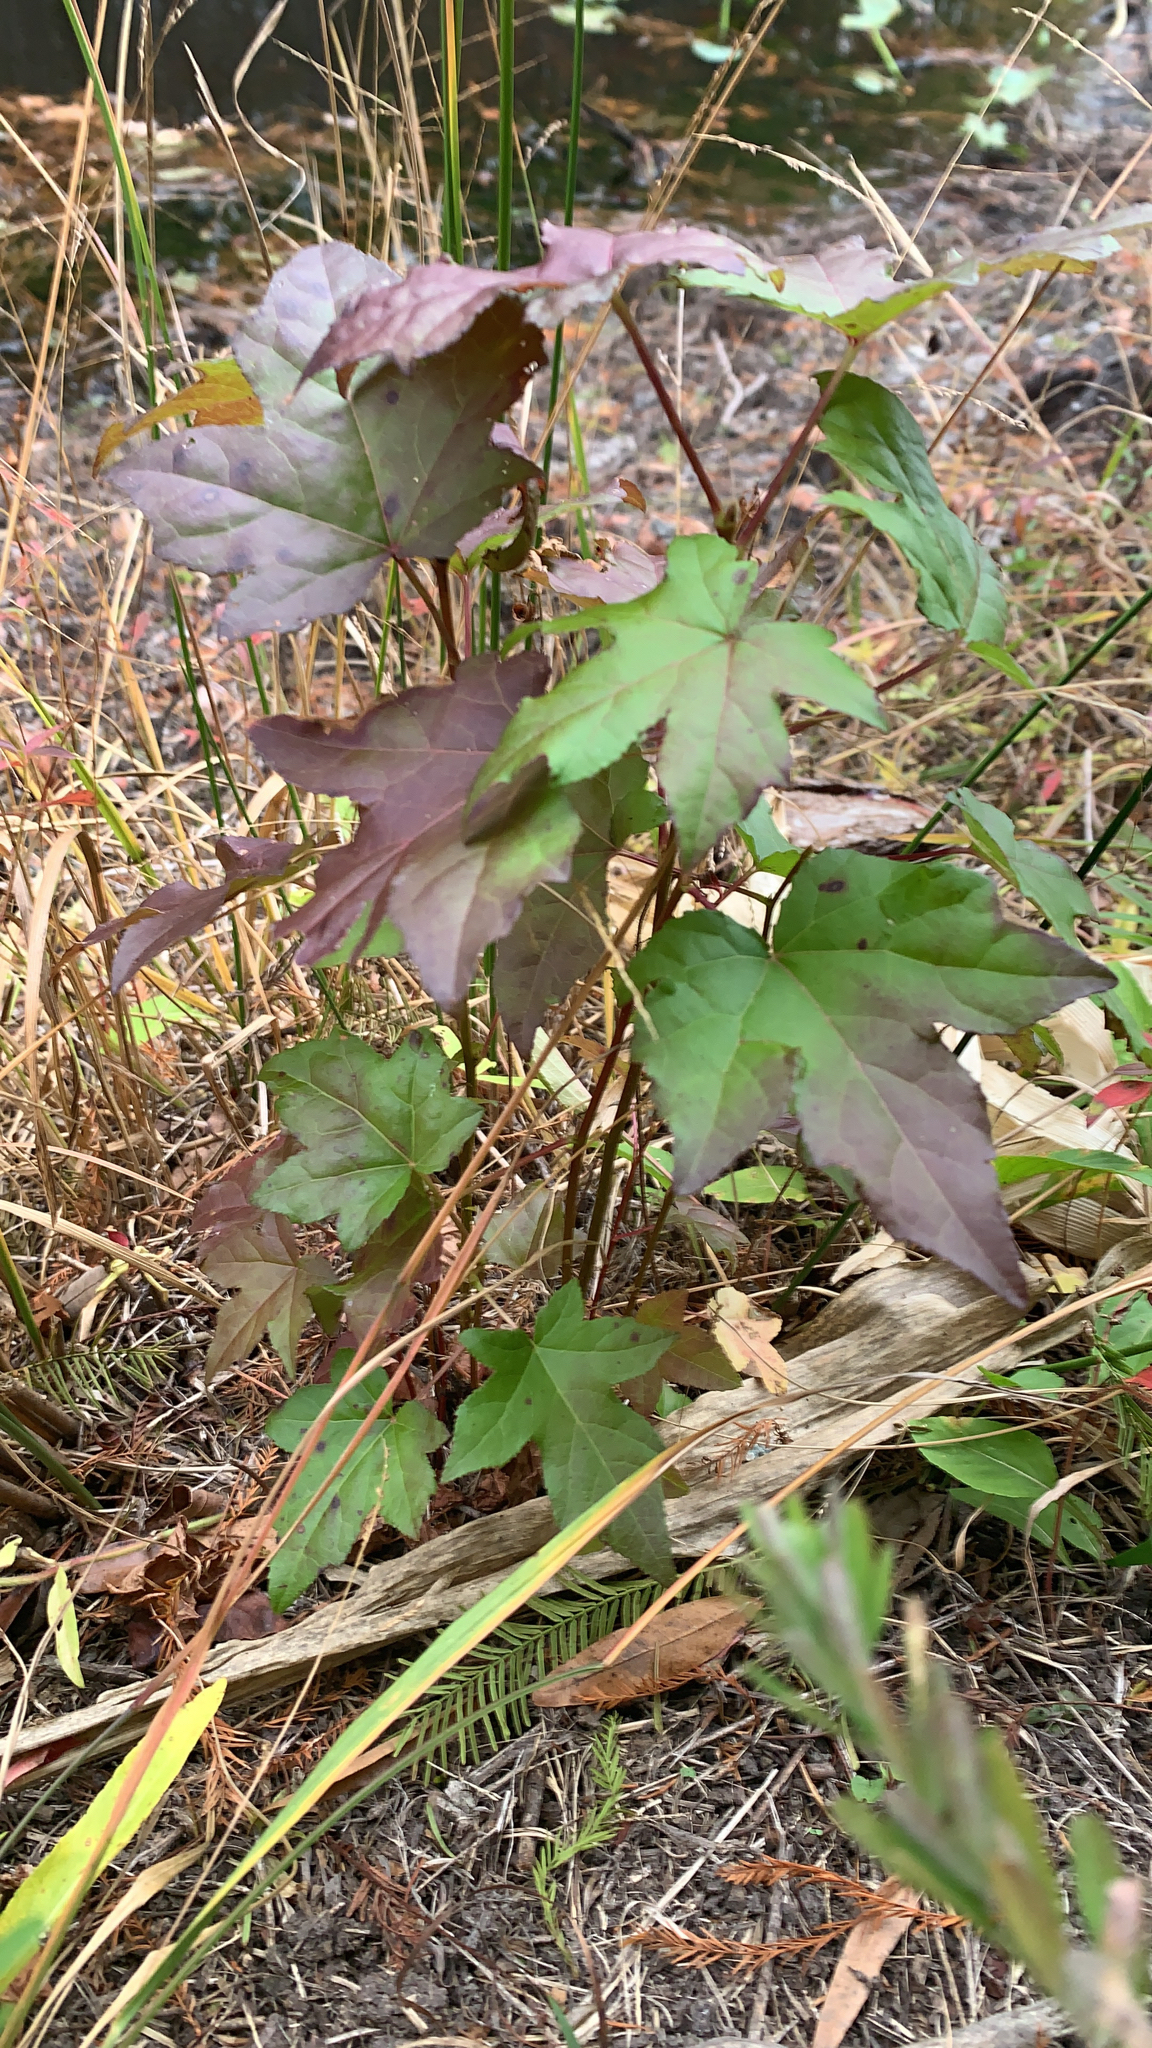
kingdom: Plantae
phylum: Tracheophyta
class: Magnoliopsida
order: Saxifragales
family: Altingiaceae
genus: Liquidambar
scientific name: Liquidambar styraciflua
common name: Sweet gum
